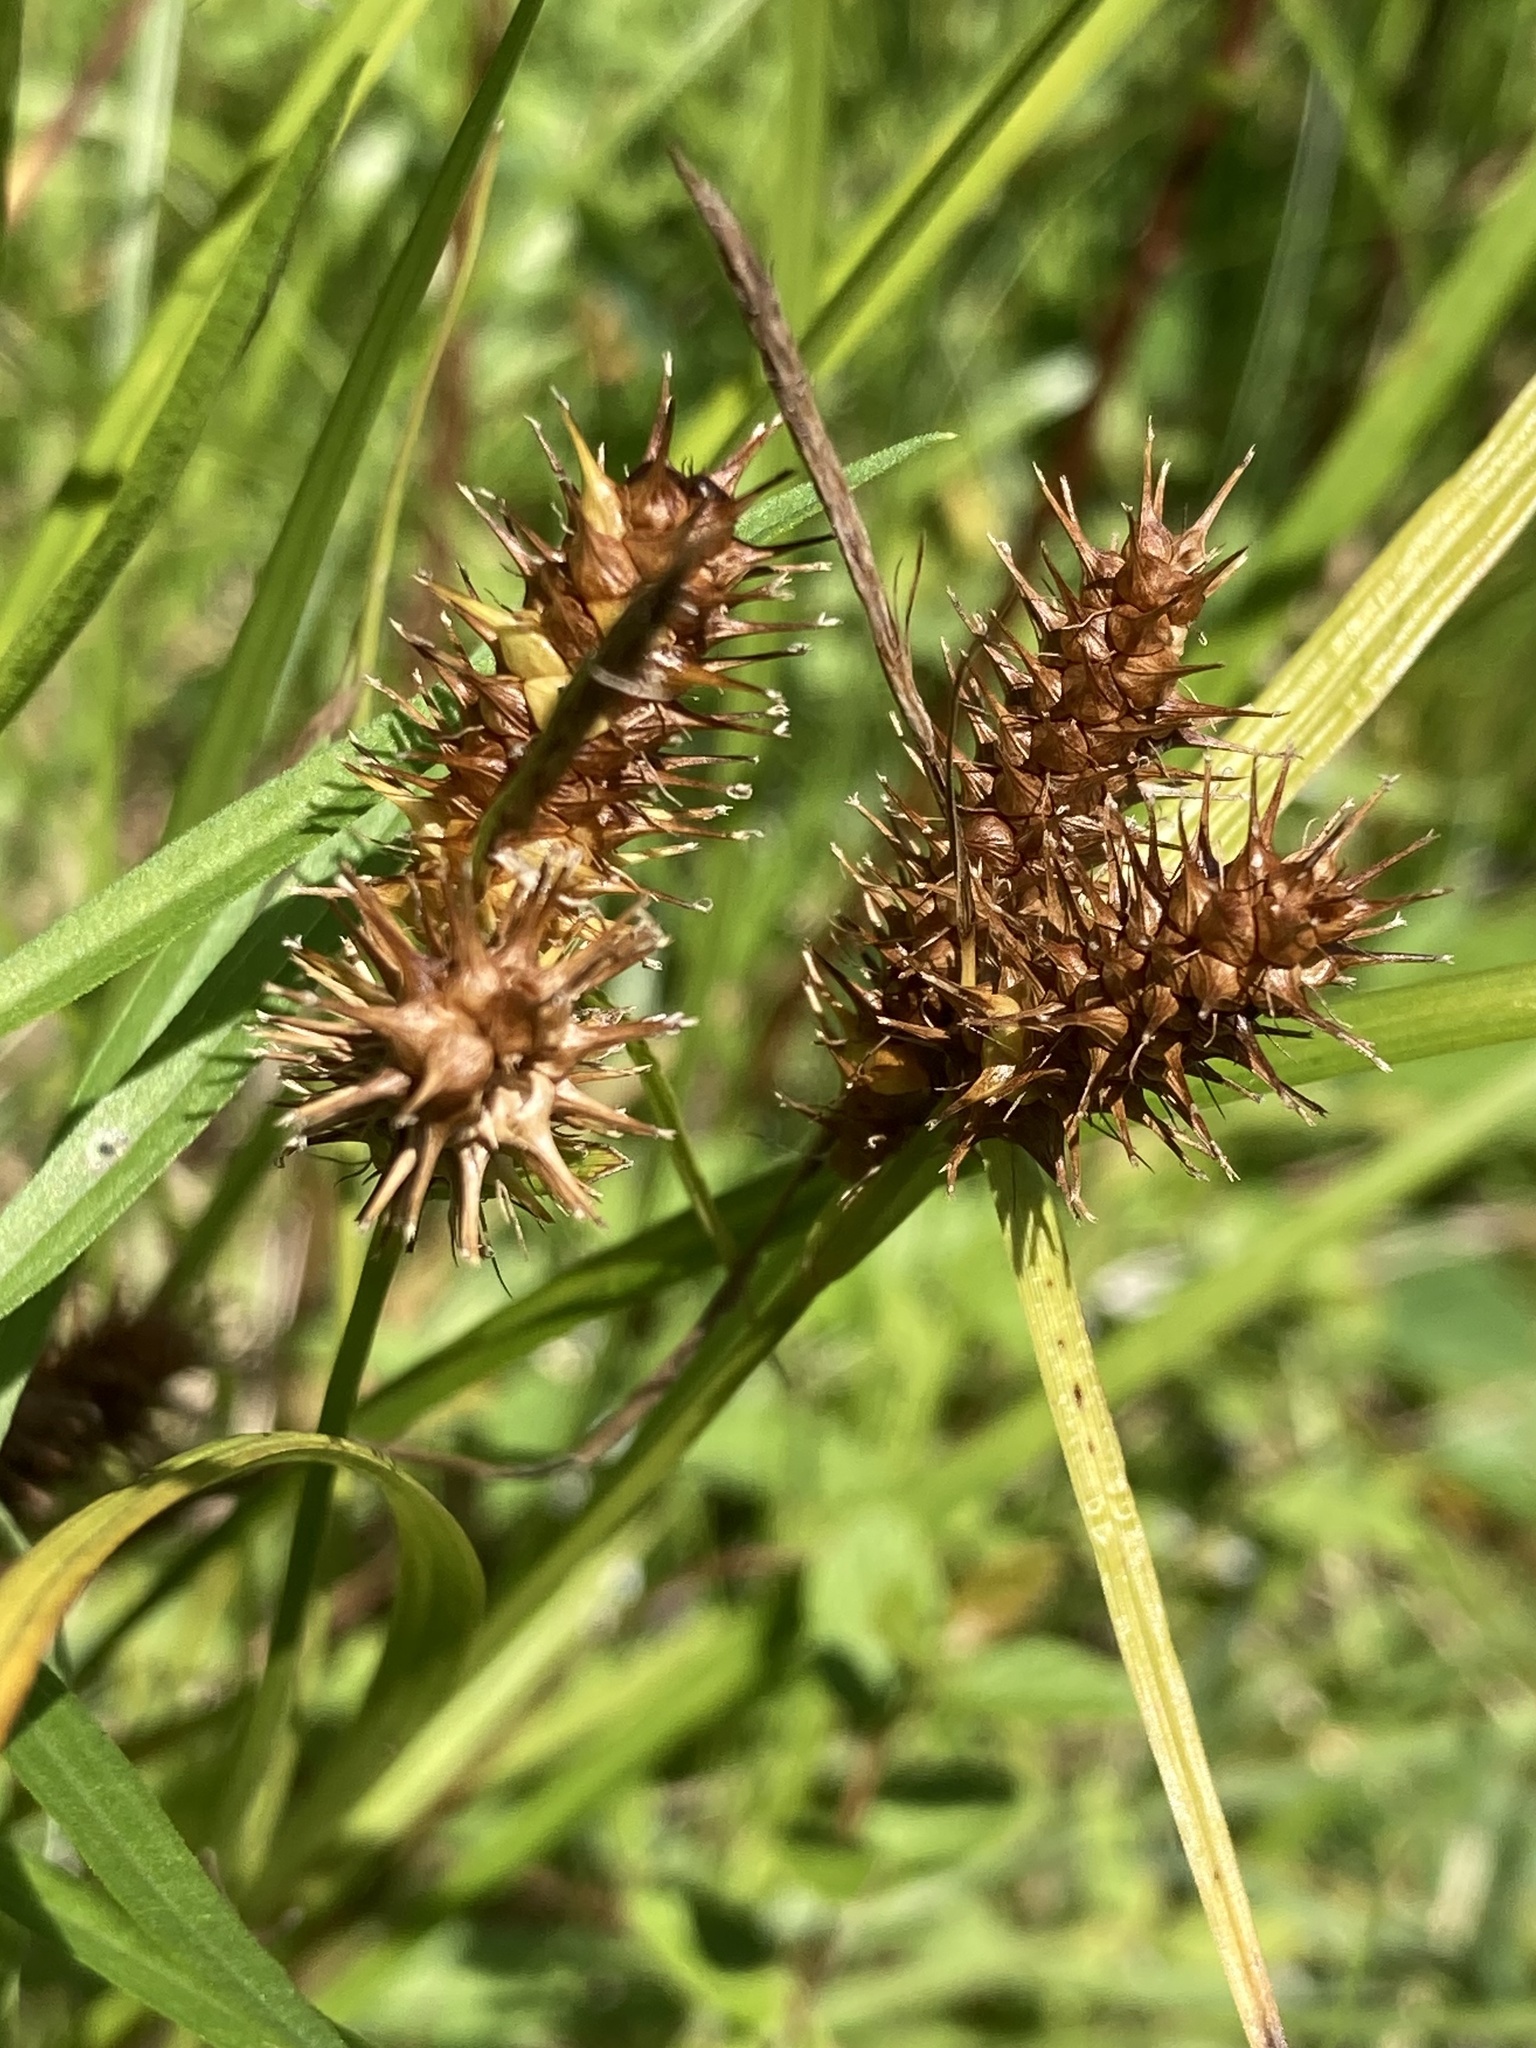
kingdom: Plantae
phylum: Tracheophyta
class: Liliopsida
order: Poales
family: Cyperaceae
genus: Carex
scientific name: Carex lurida
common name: Sallow sedge
